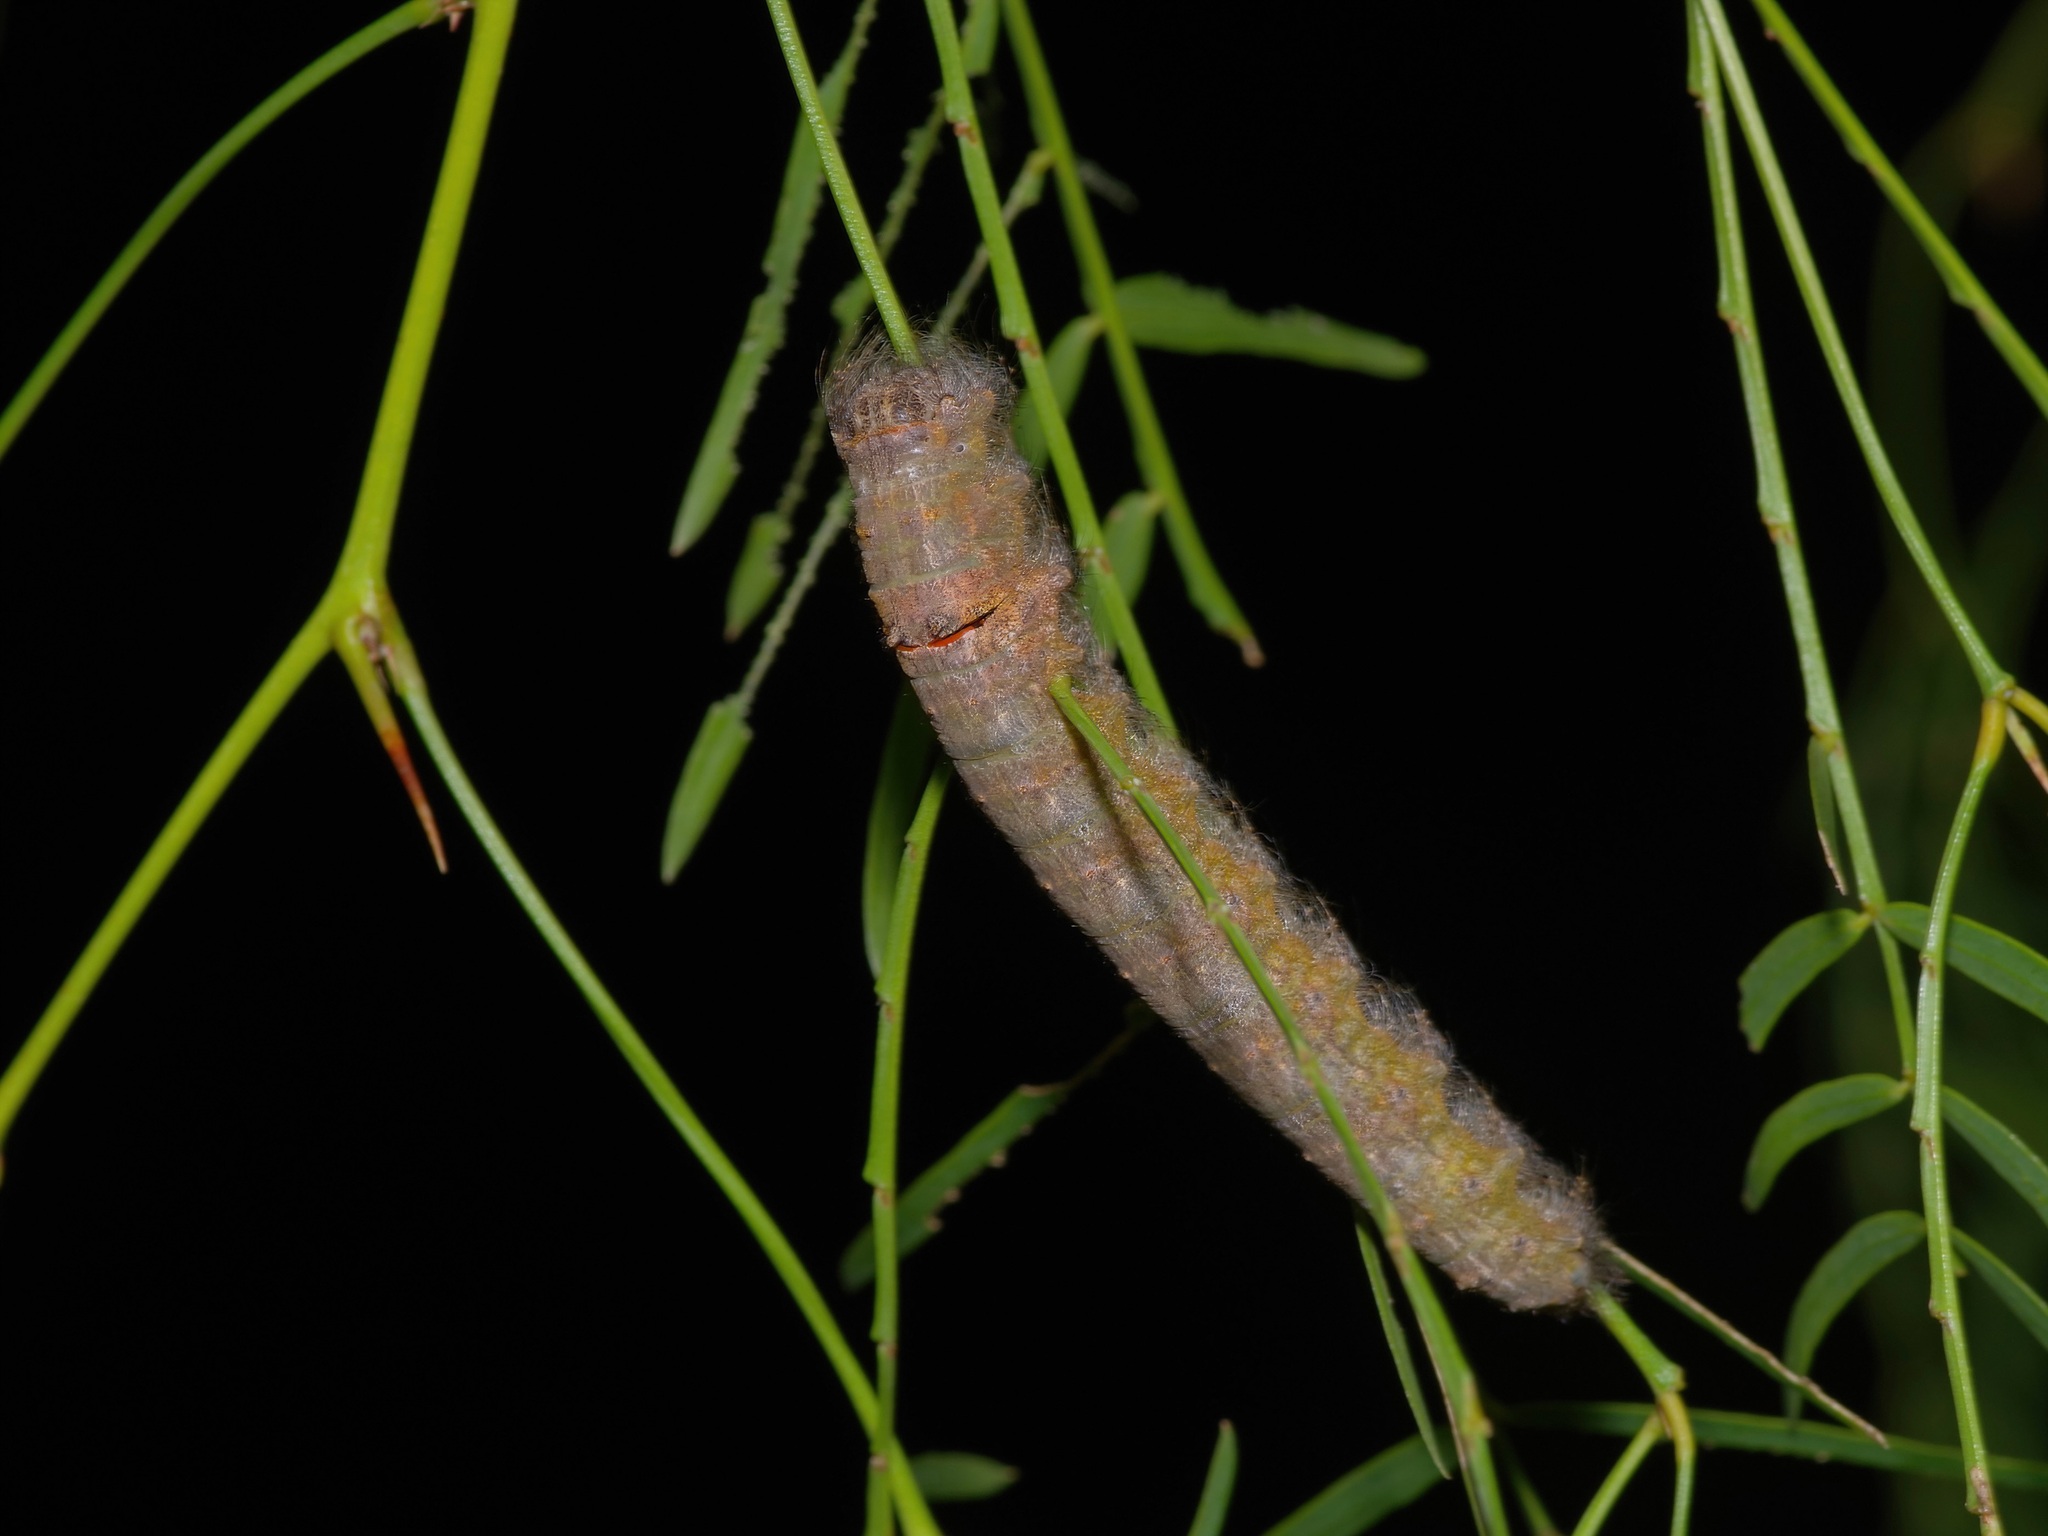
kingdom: Animalia
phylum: Arthropoda
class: Insecta
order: Lepidoptera
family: Lasiocampidae
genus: Apotolype
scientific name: Apotolype brevicrista
